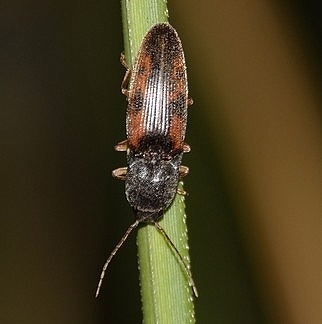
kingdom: Animalia
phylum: Arthropoda
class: Insecta
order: Coleoptera
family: Elateridae
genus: Monocrepidius
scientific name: Monocrepidius
